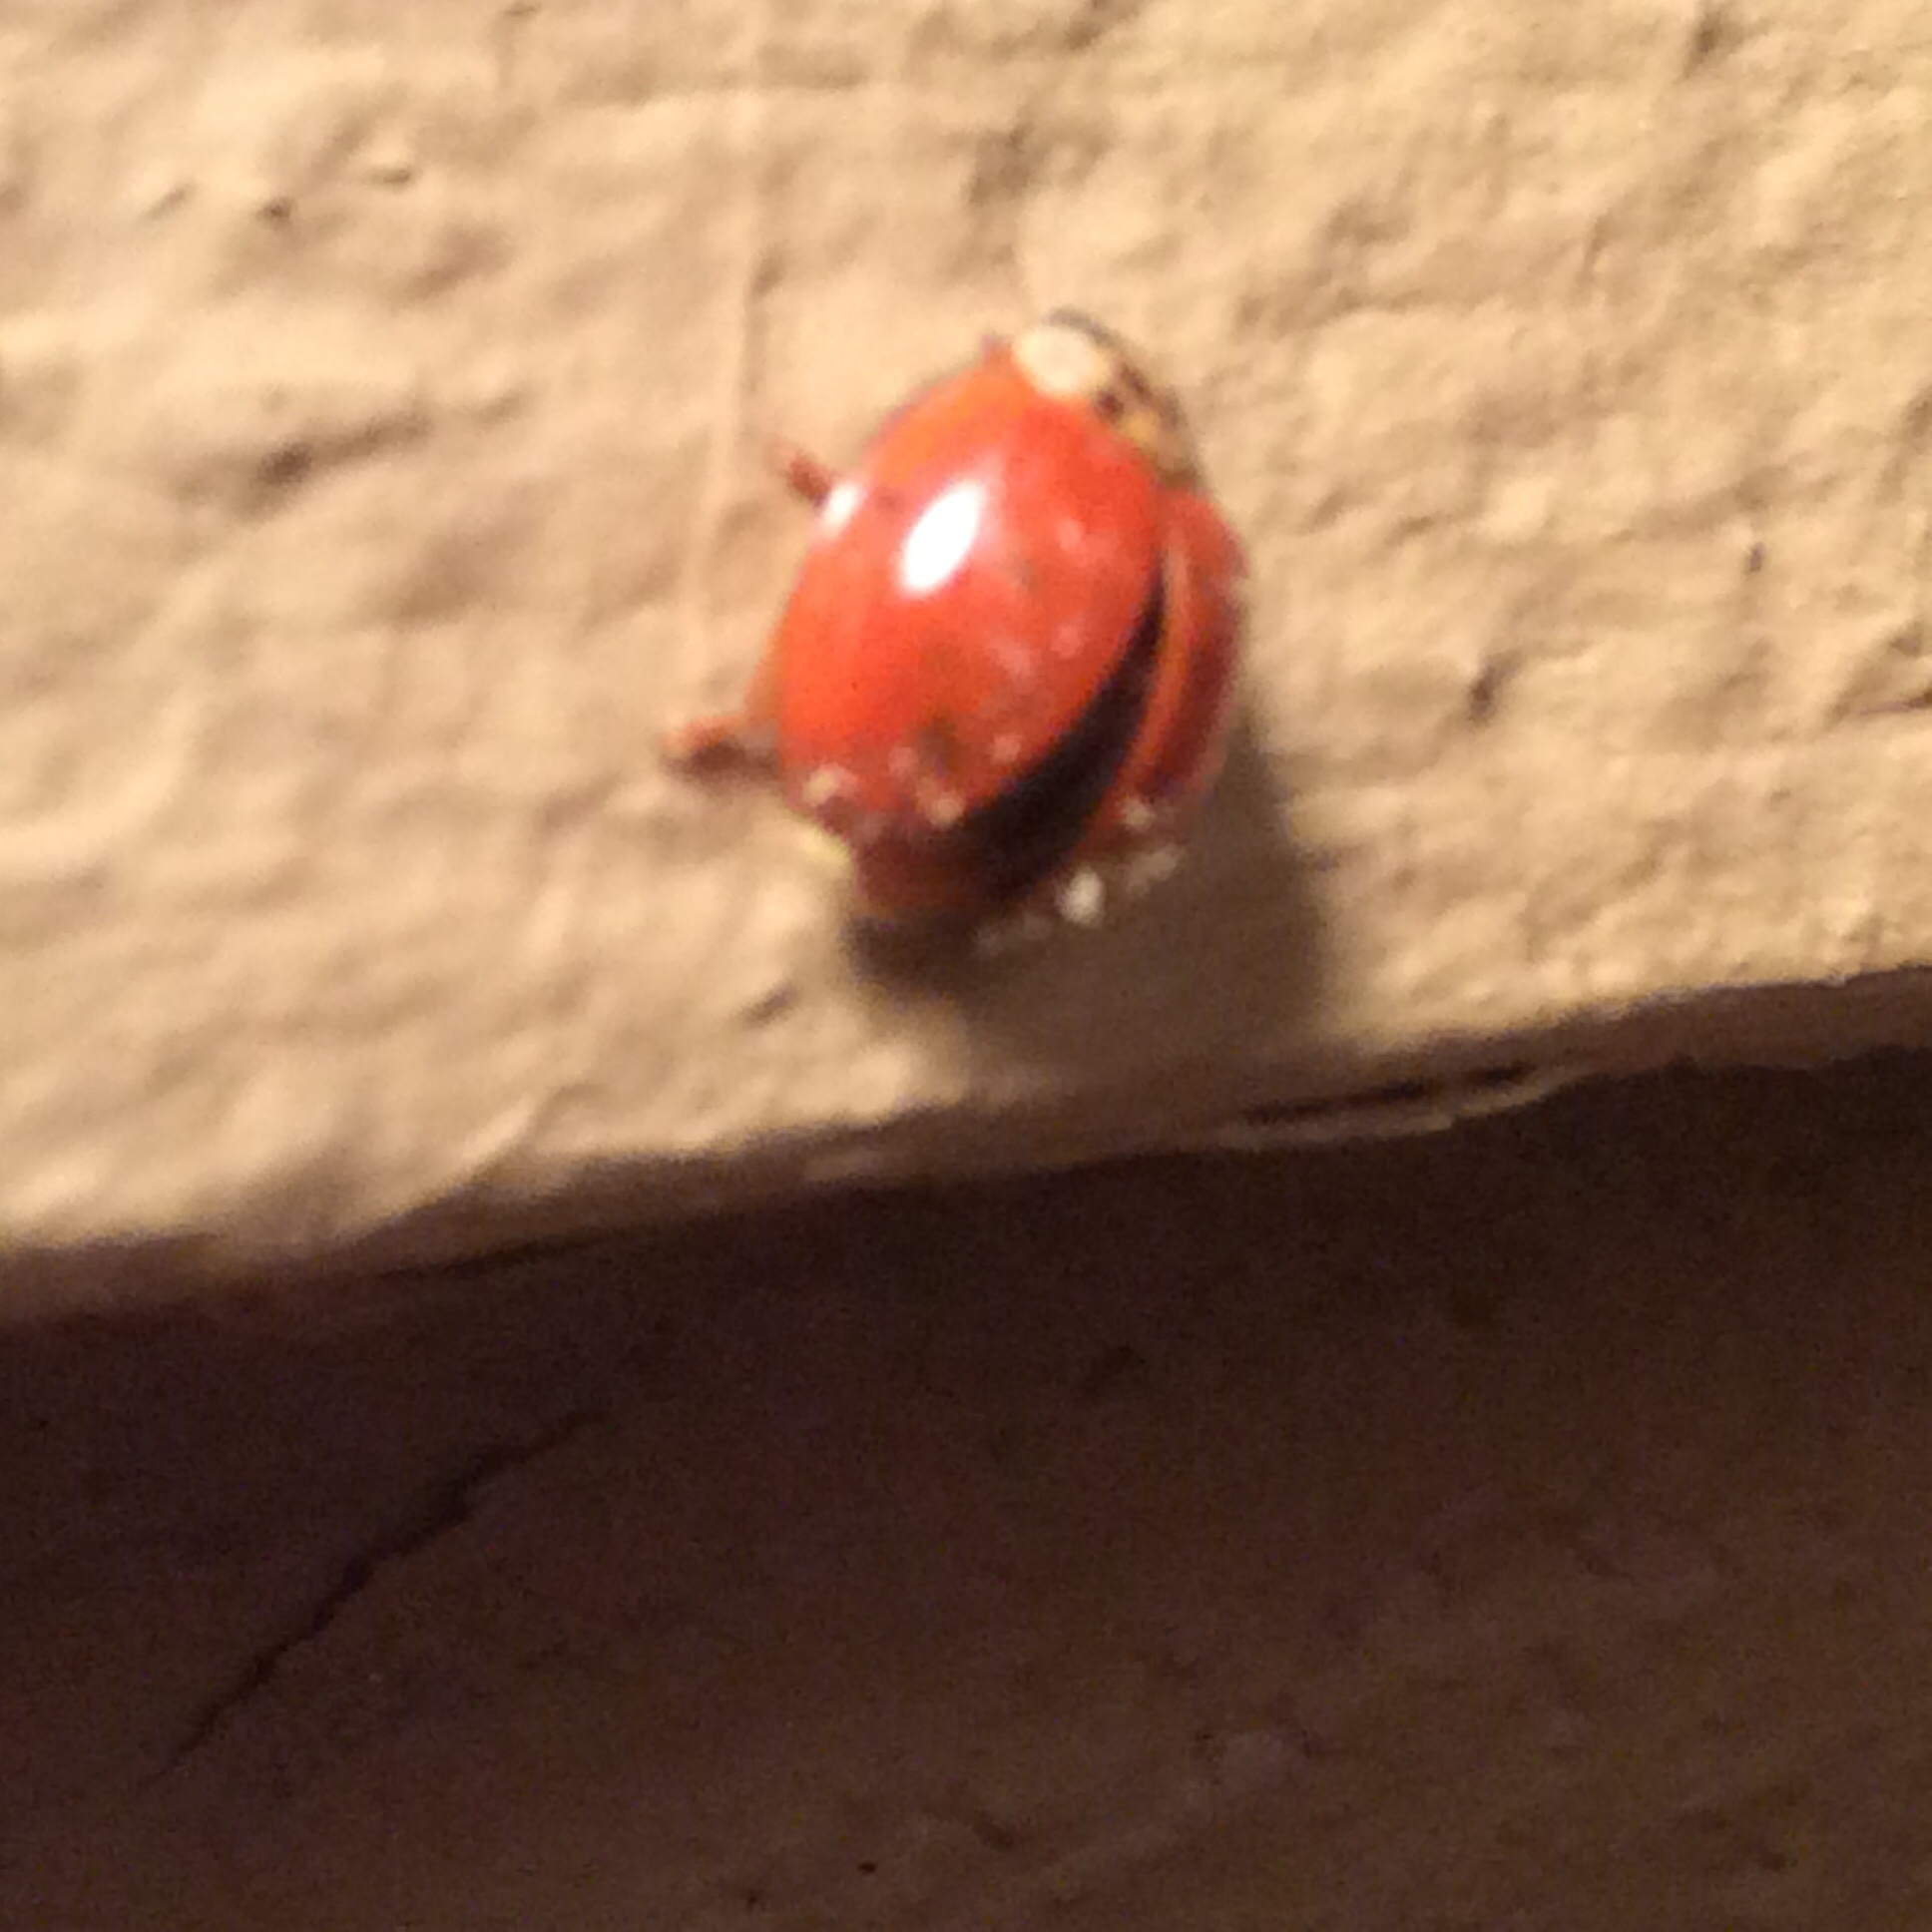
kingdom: Fungi
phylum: Ascomycota
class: Laboulbeniomycetes
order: Laboulbeniales
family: Laboulbeniaceae
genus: Hesperomyces
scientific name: Hesperomyces harmoniae
